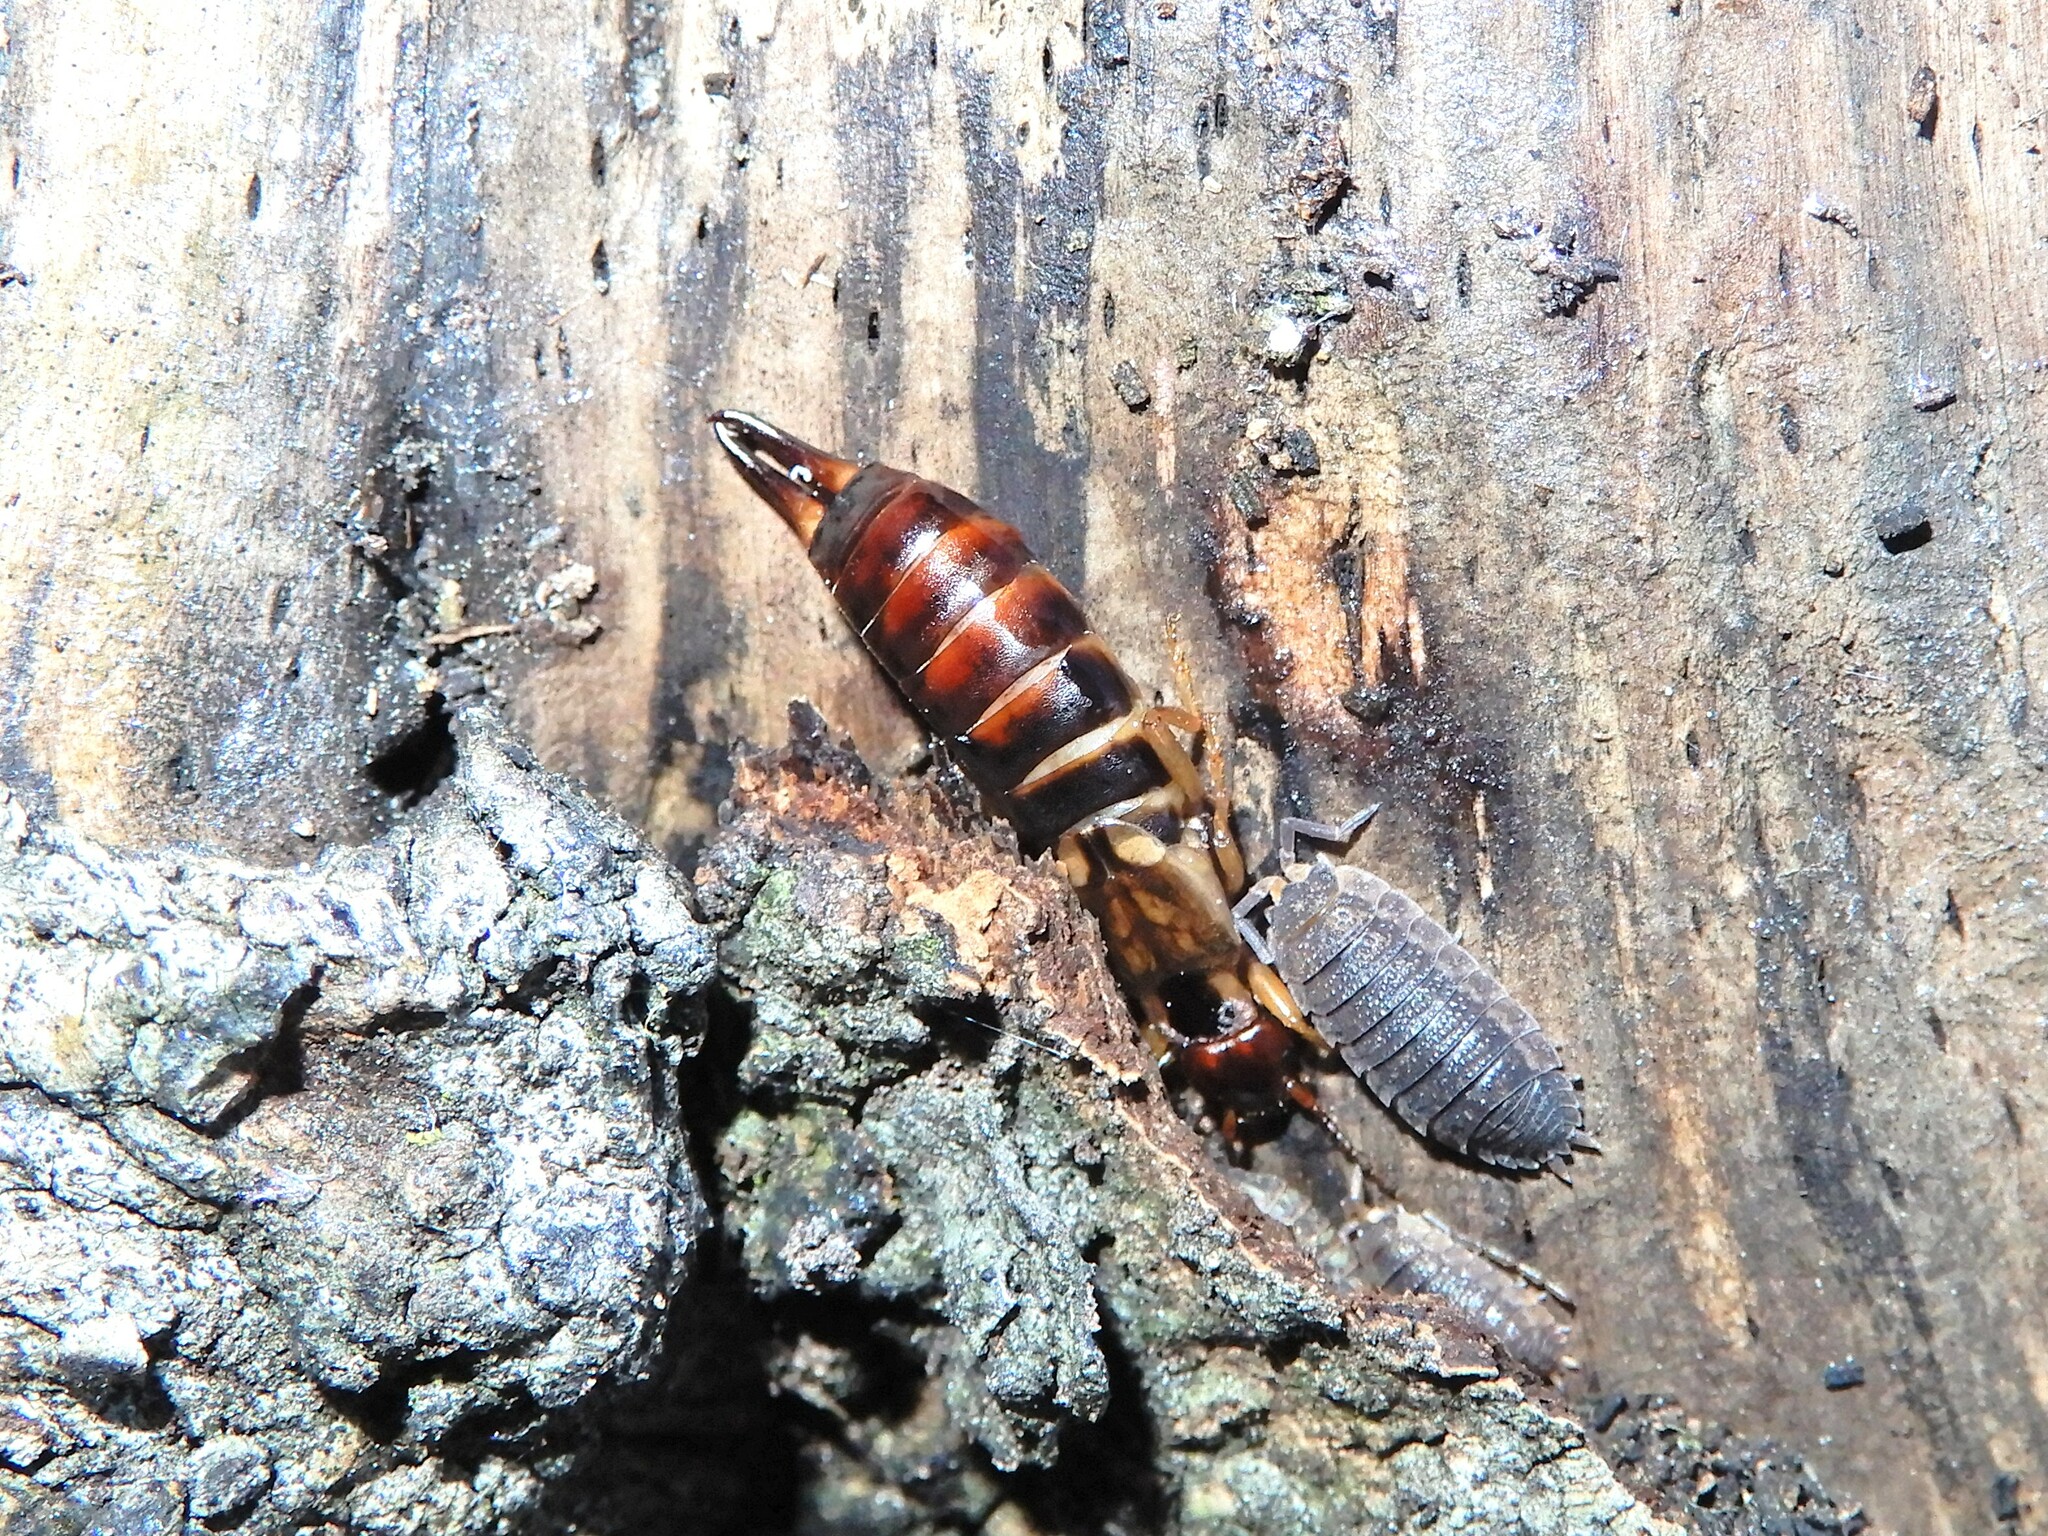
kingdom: Animalia
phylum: Arthropoda
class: Insecta
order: Dermaptera
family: Forficulidae
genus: Forficula
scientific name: Forficula dentata
